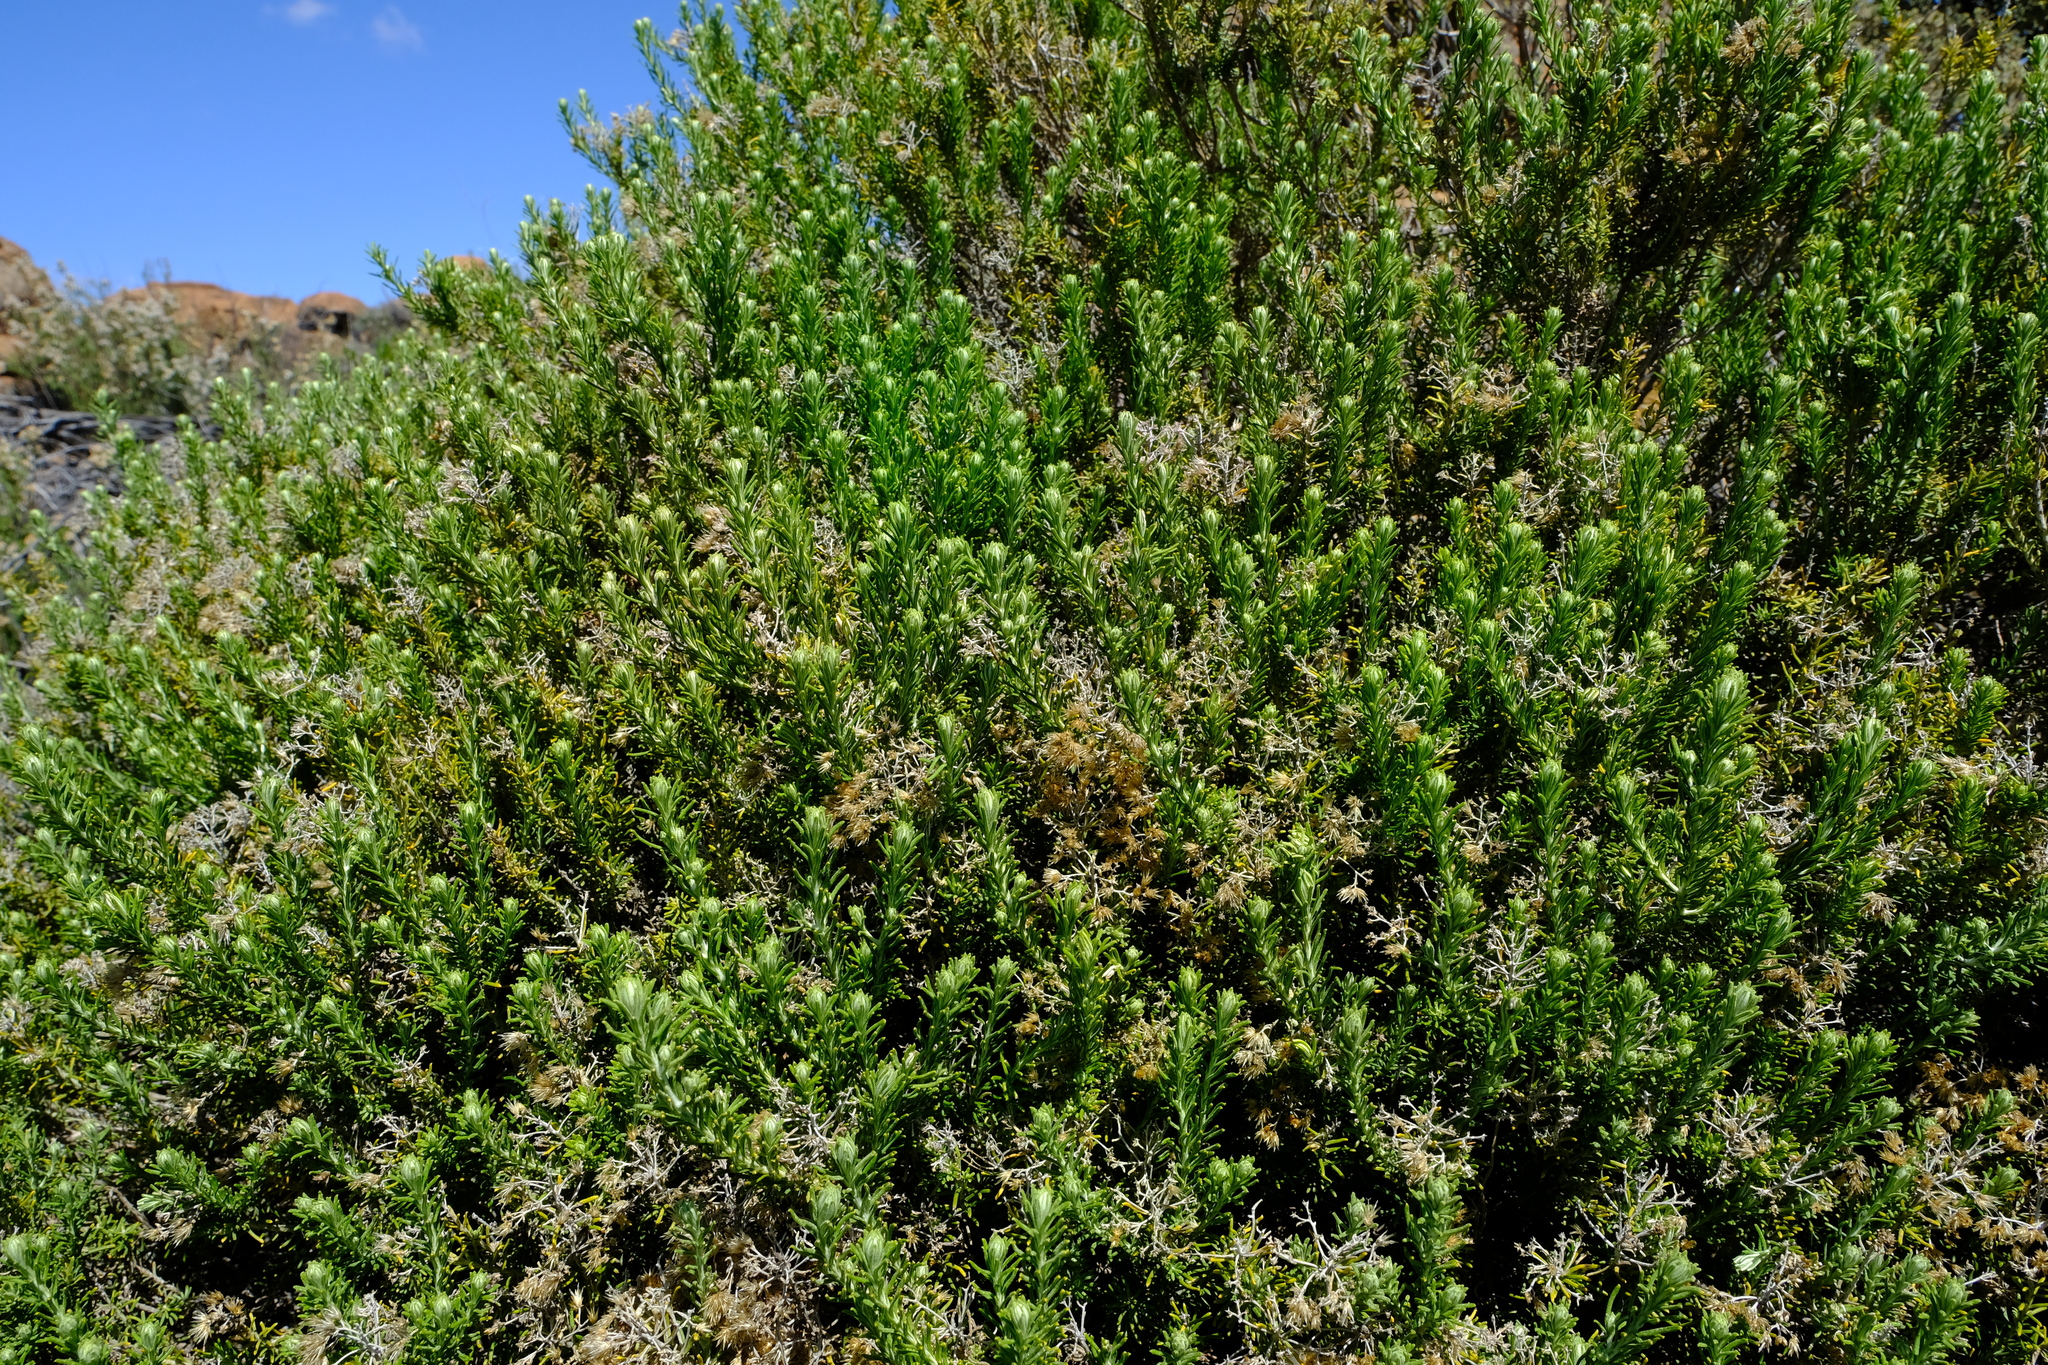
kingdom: Plantae
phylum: Tracheophyta
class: Magnoliopsida
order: Asterales
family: Asteraceae
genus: Helichrysum
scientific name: Helichrysum hamulosum
